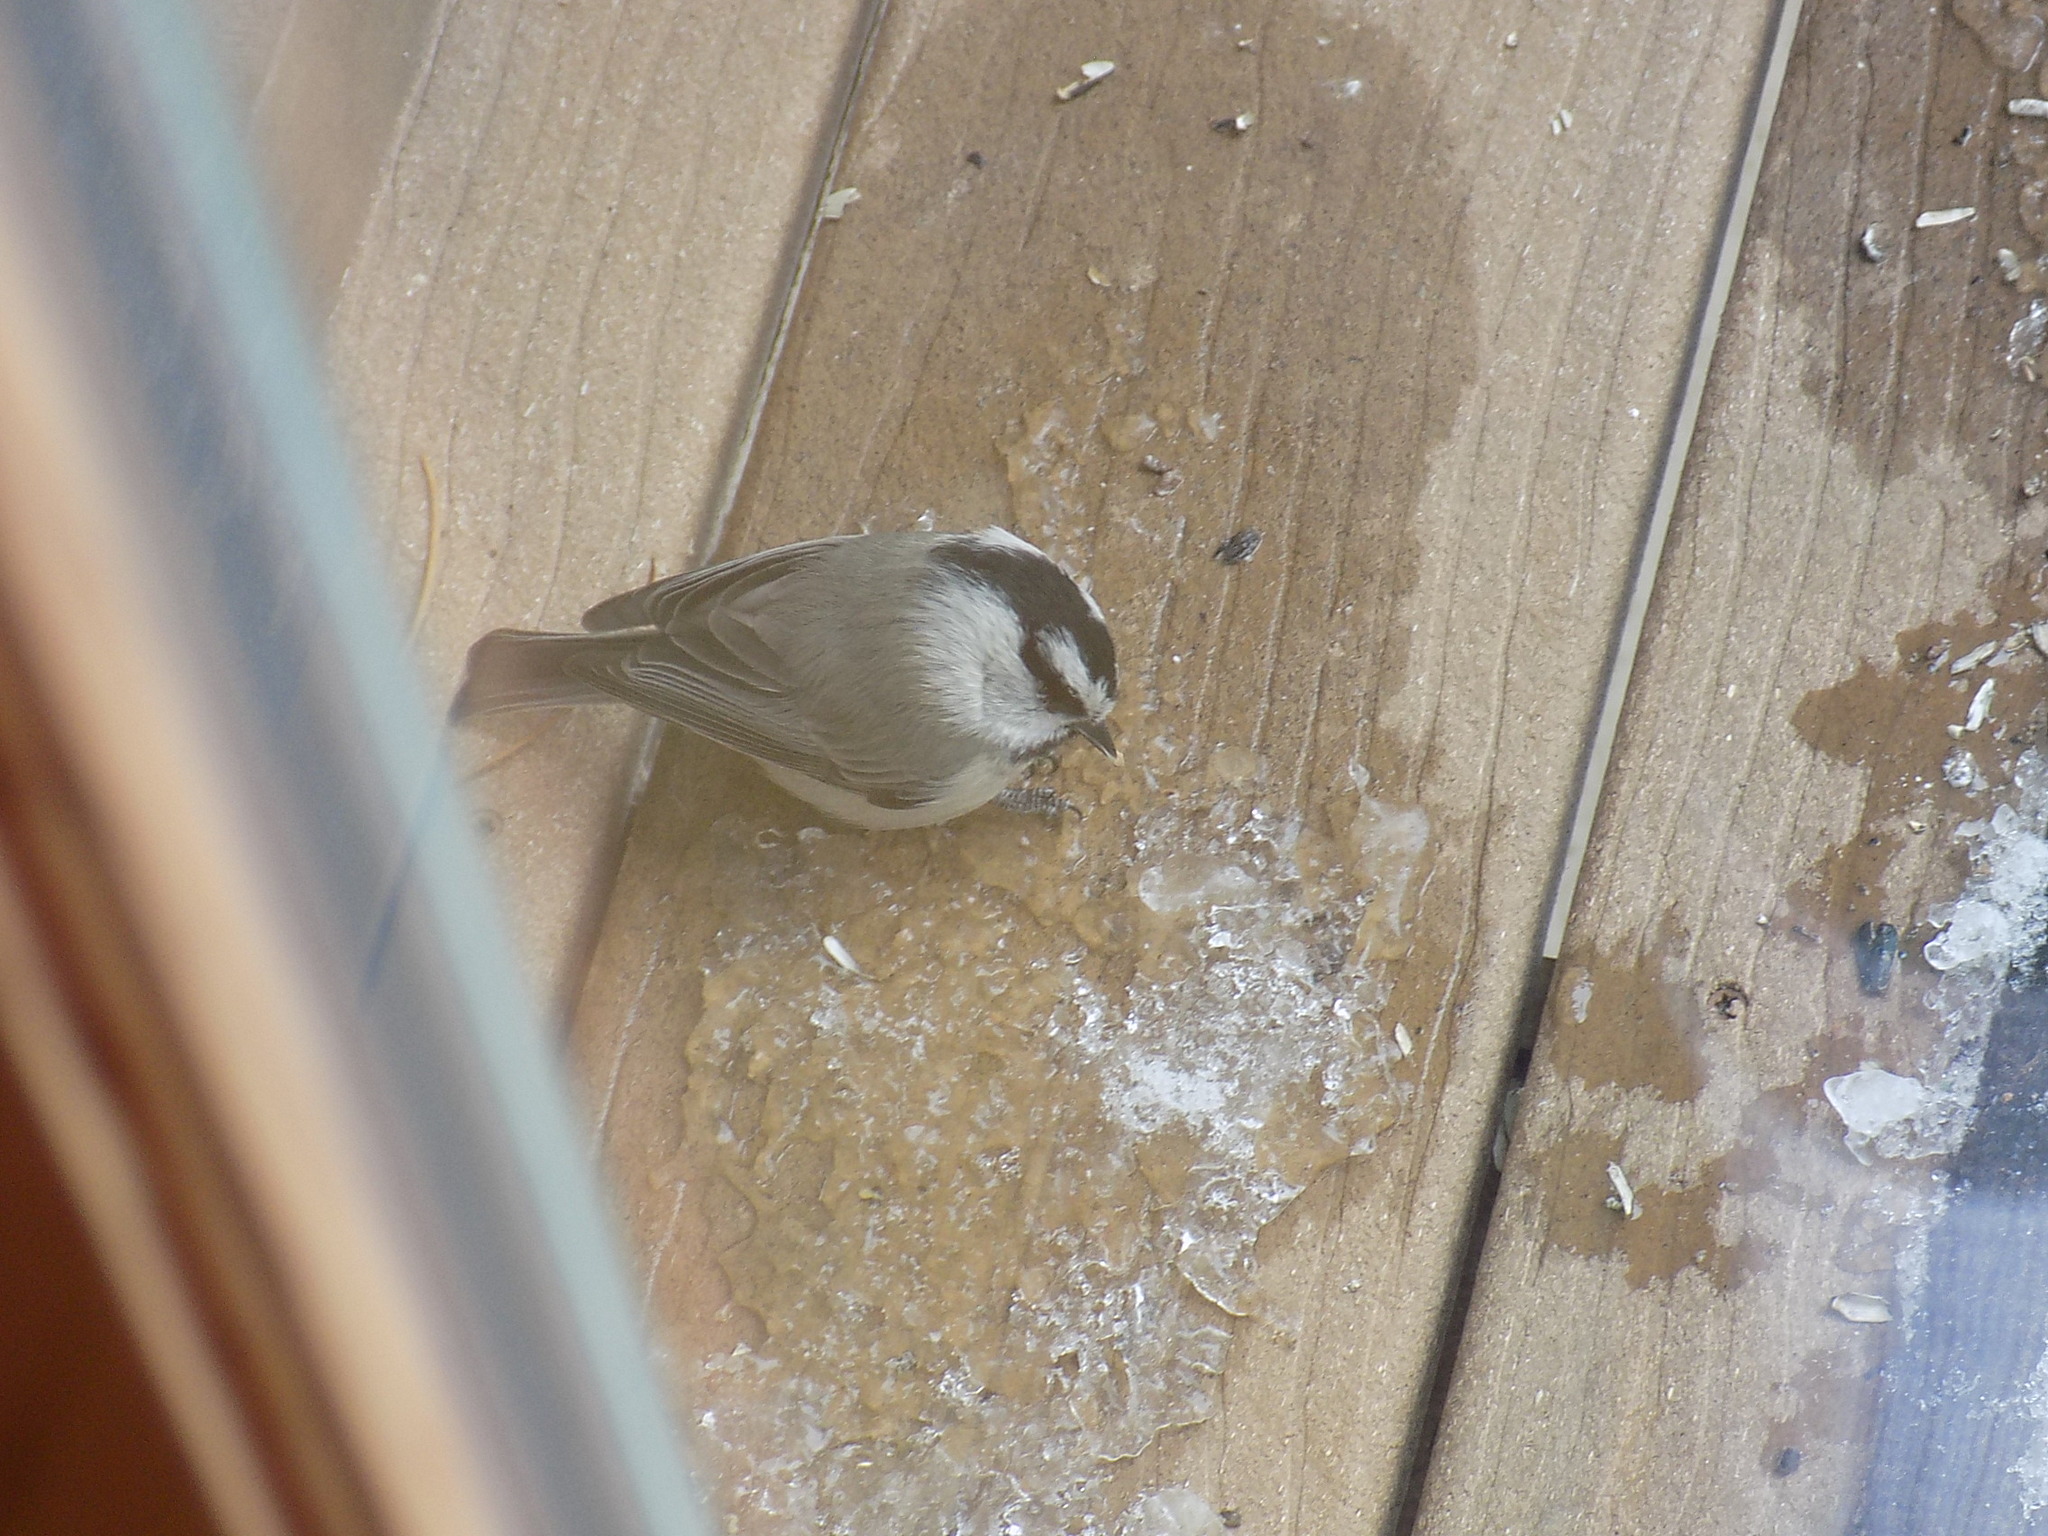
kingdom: Animalia
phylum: Chordata
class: Aves
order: Passeriformes
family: Paridae
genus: Poecile
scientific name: Poecile gambeli
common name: Mountain chickadee
